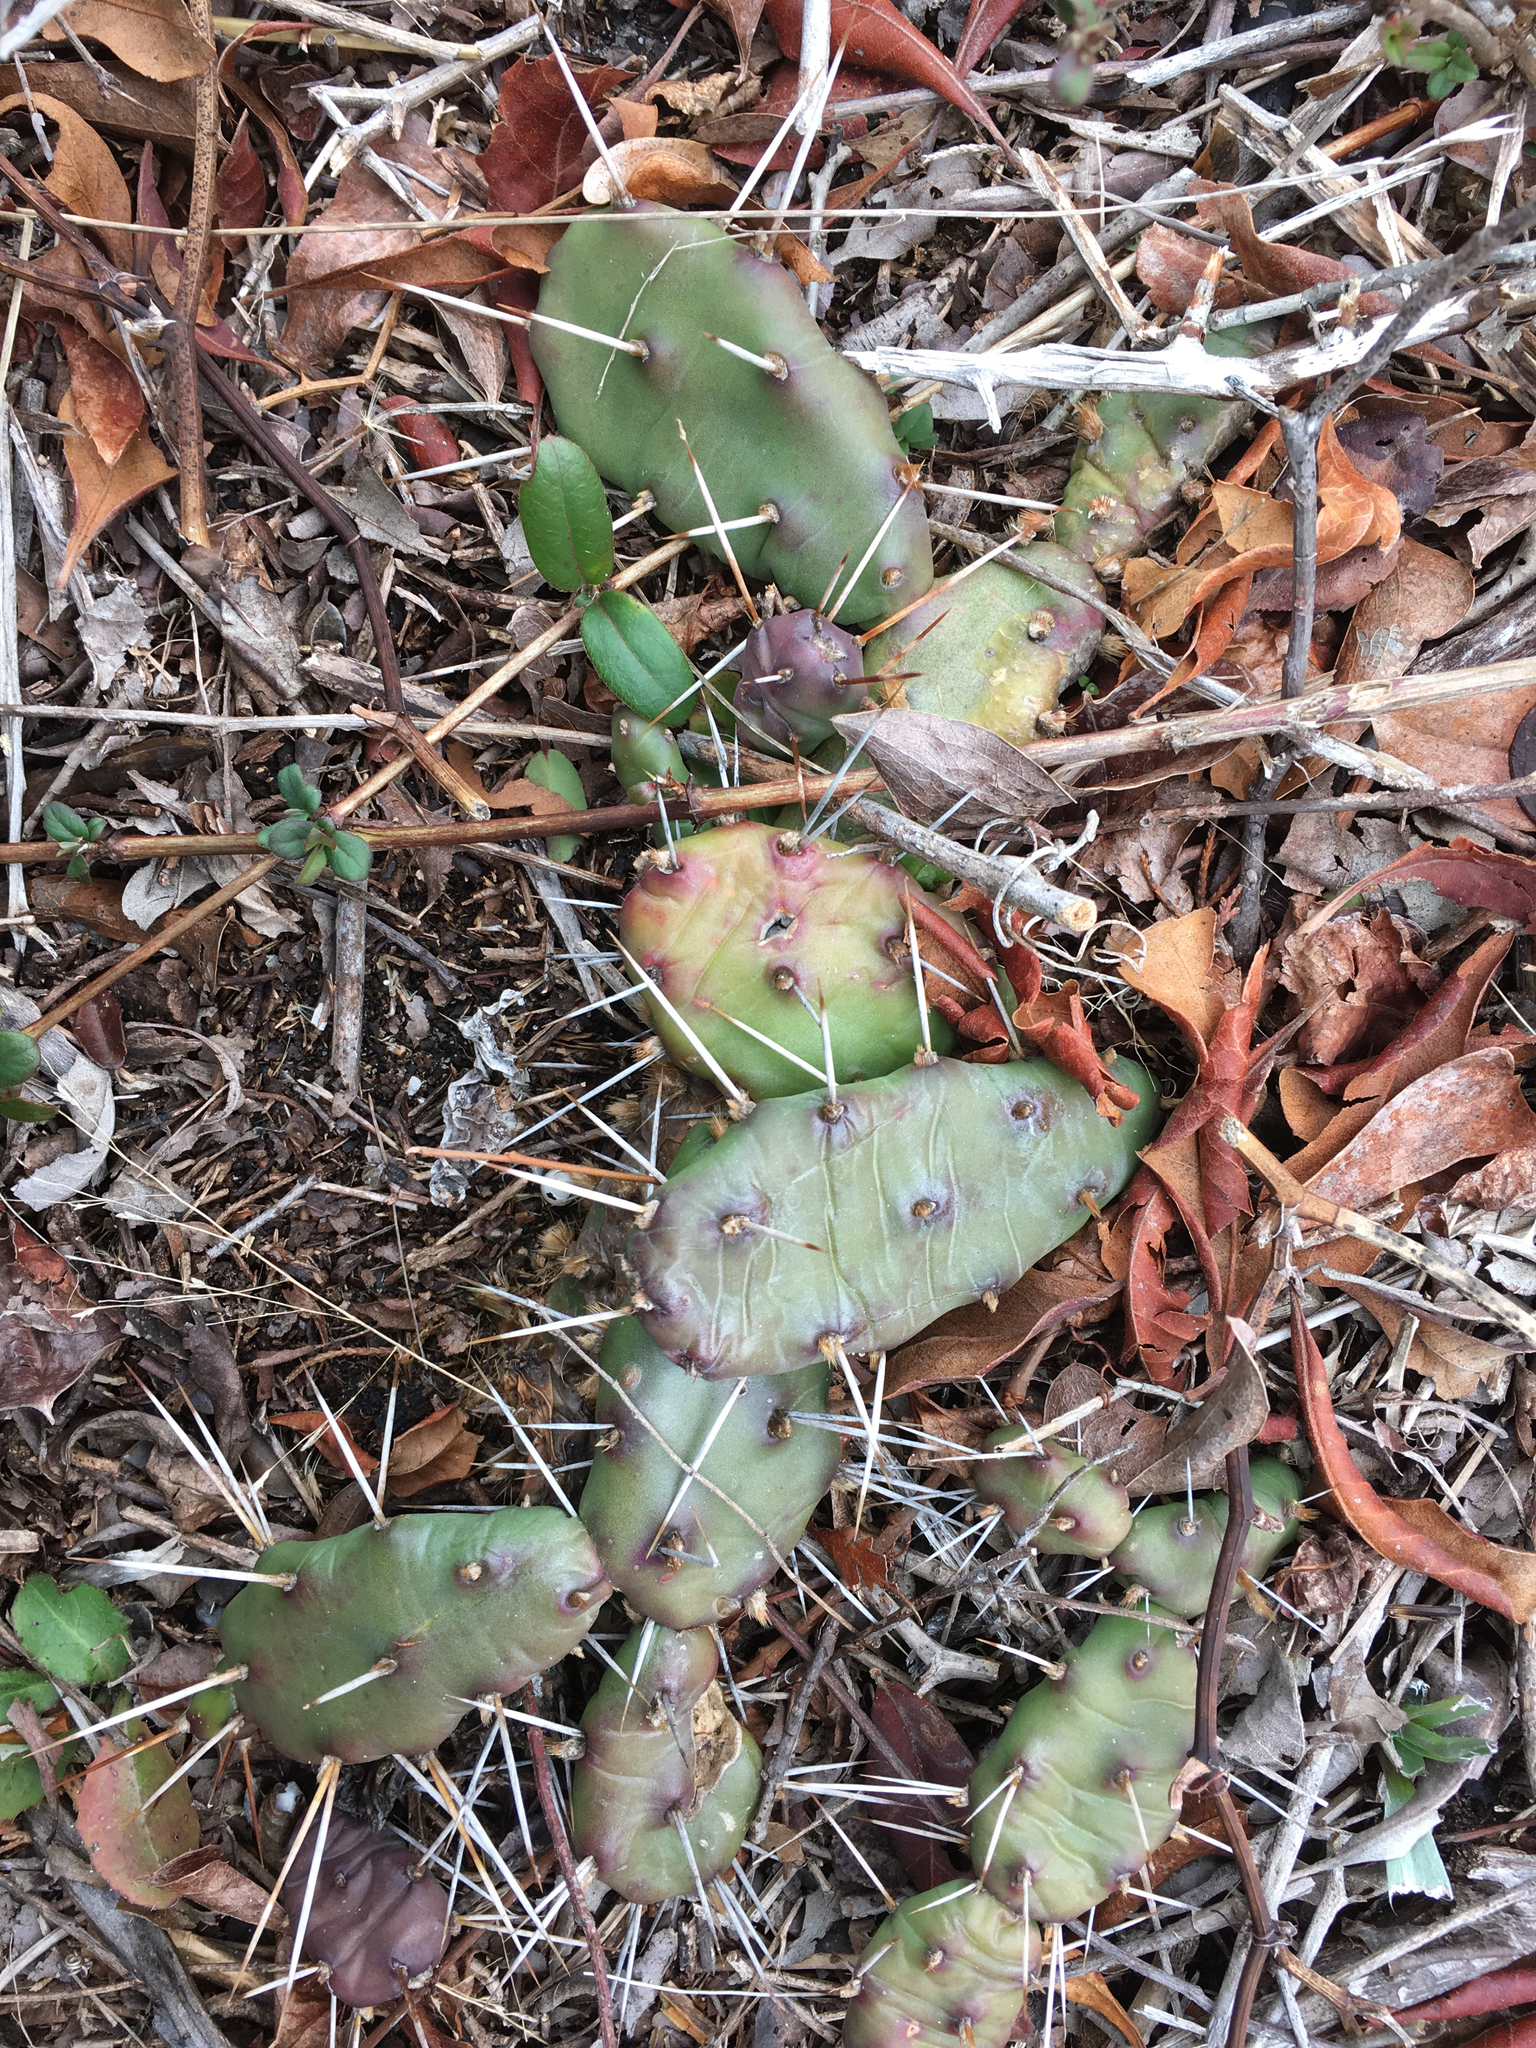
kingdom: Plantae
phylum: Tracheophyta
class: Magnoliopsida
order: Caryophyllales
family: Cactaceae
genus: Opuntia
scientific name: Opuntia drummondii
